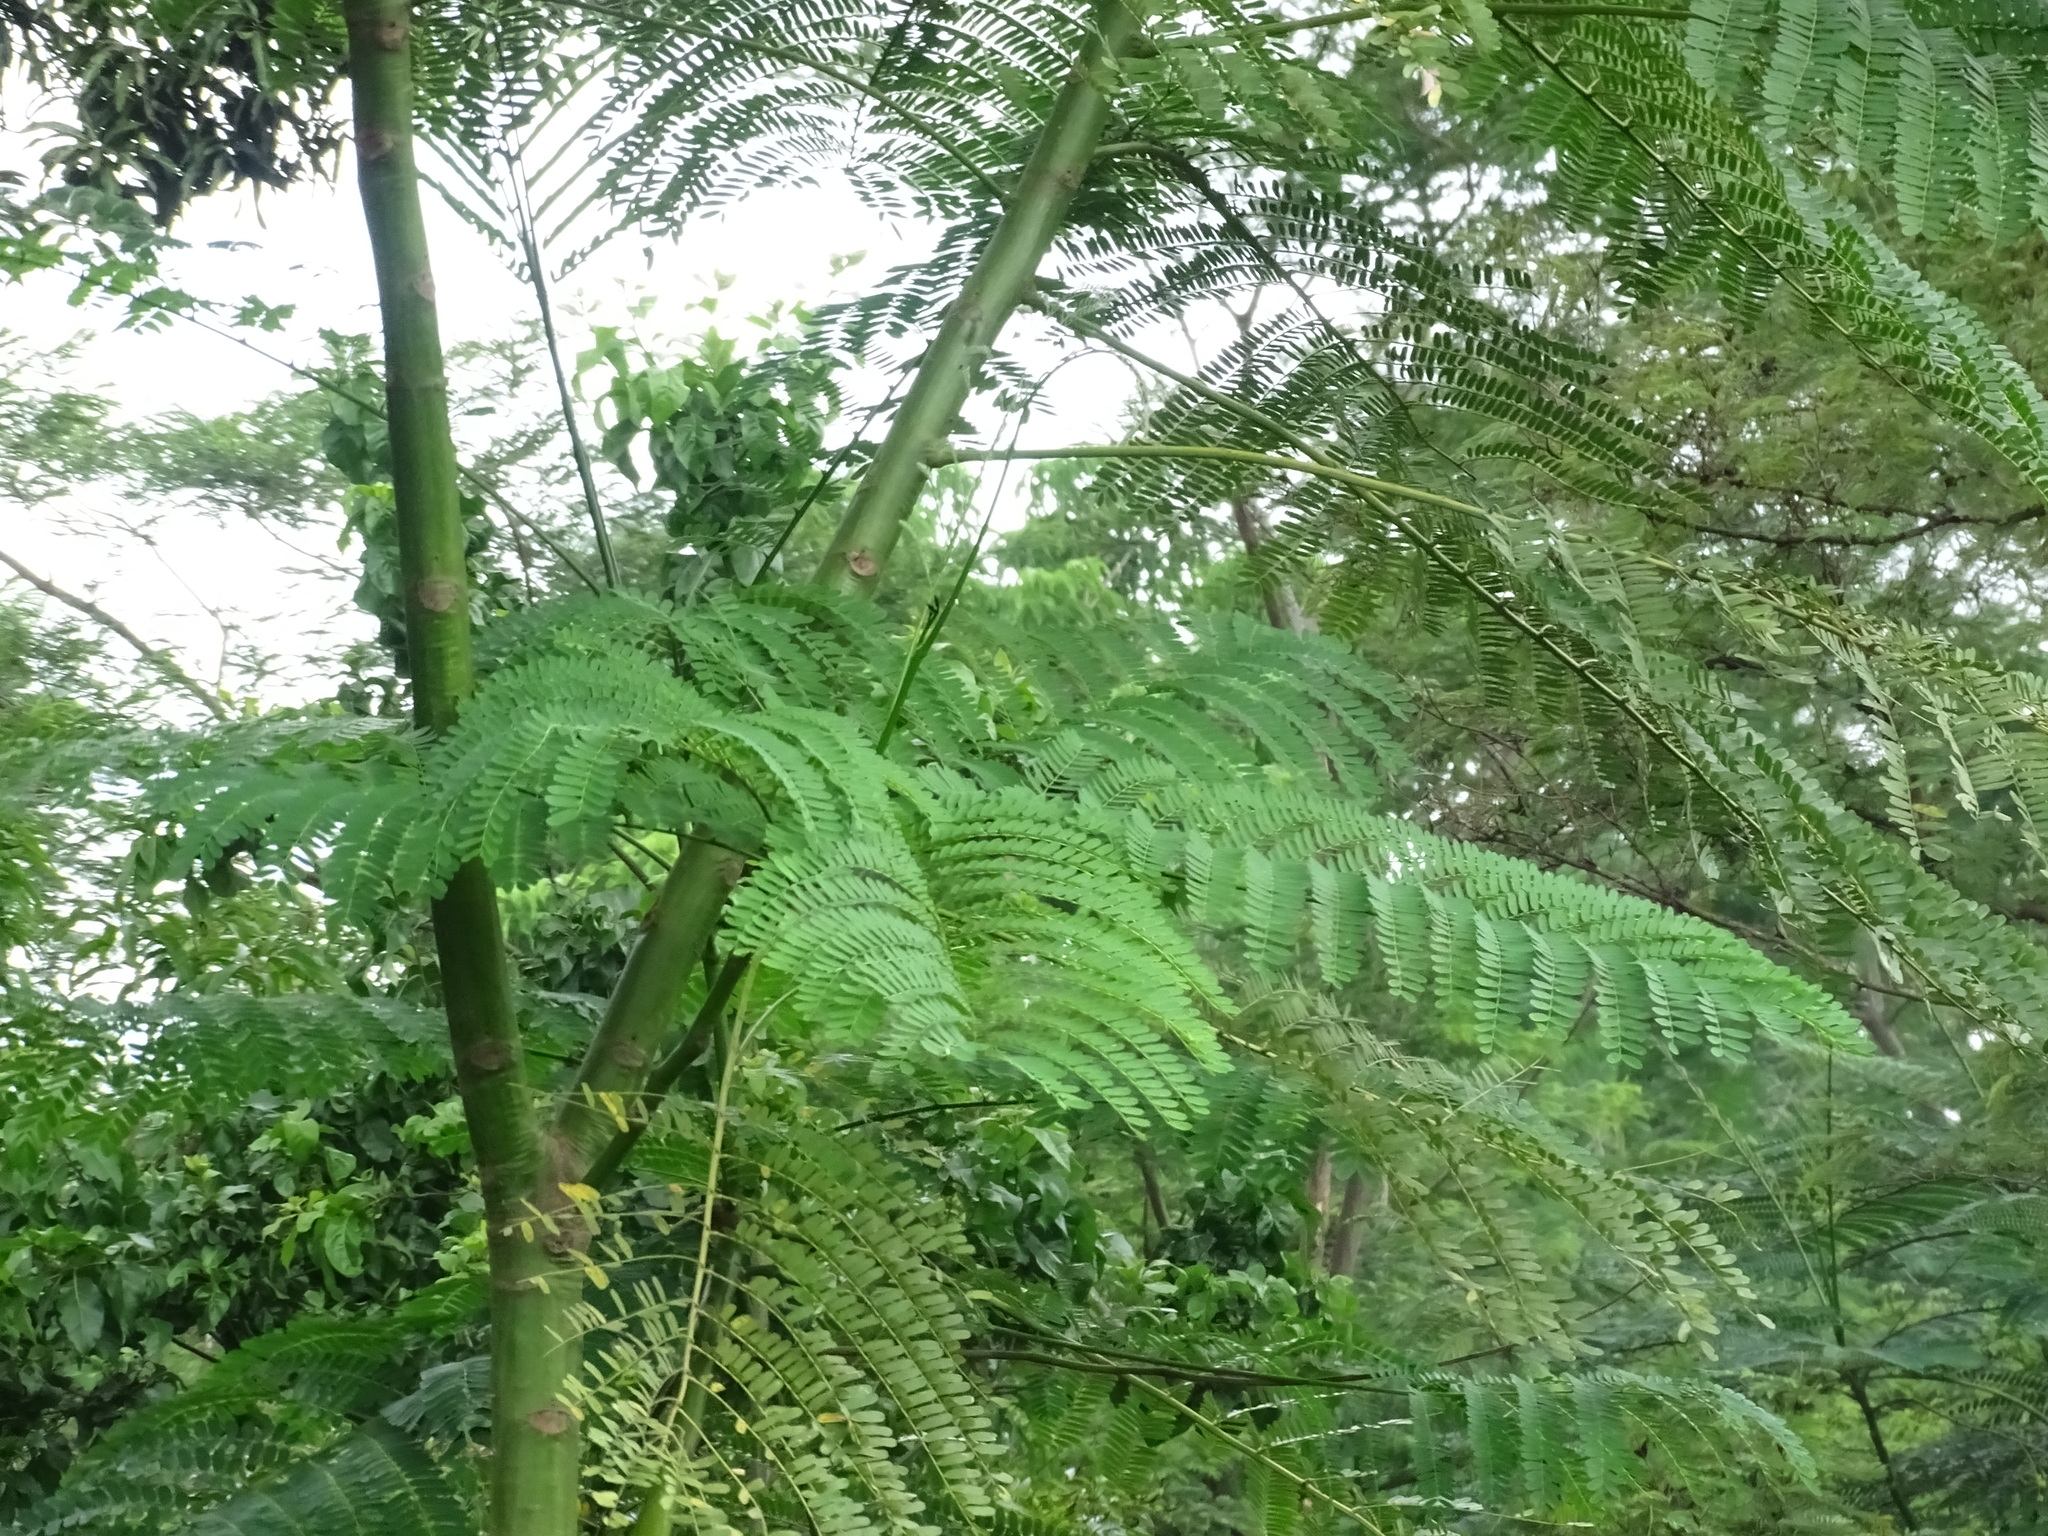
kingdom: Plantae
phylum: Tracheophyta
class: Magnoliopsida
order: Fabales
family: Fabaceae
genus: Schizolobium
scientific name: Schizolobium parahyba
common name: Brazilian firetree
